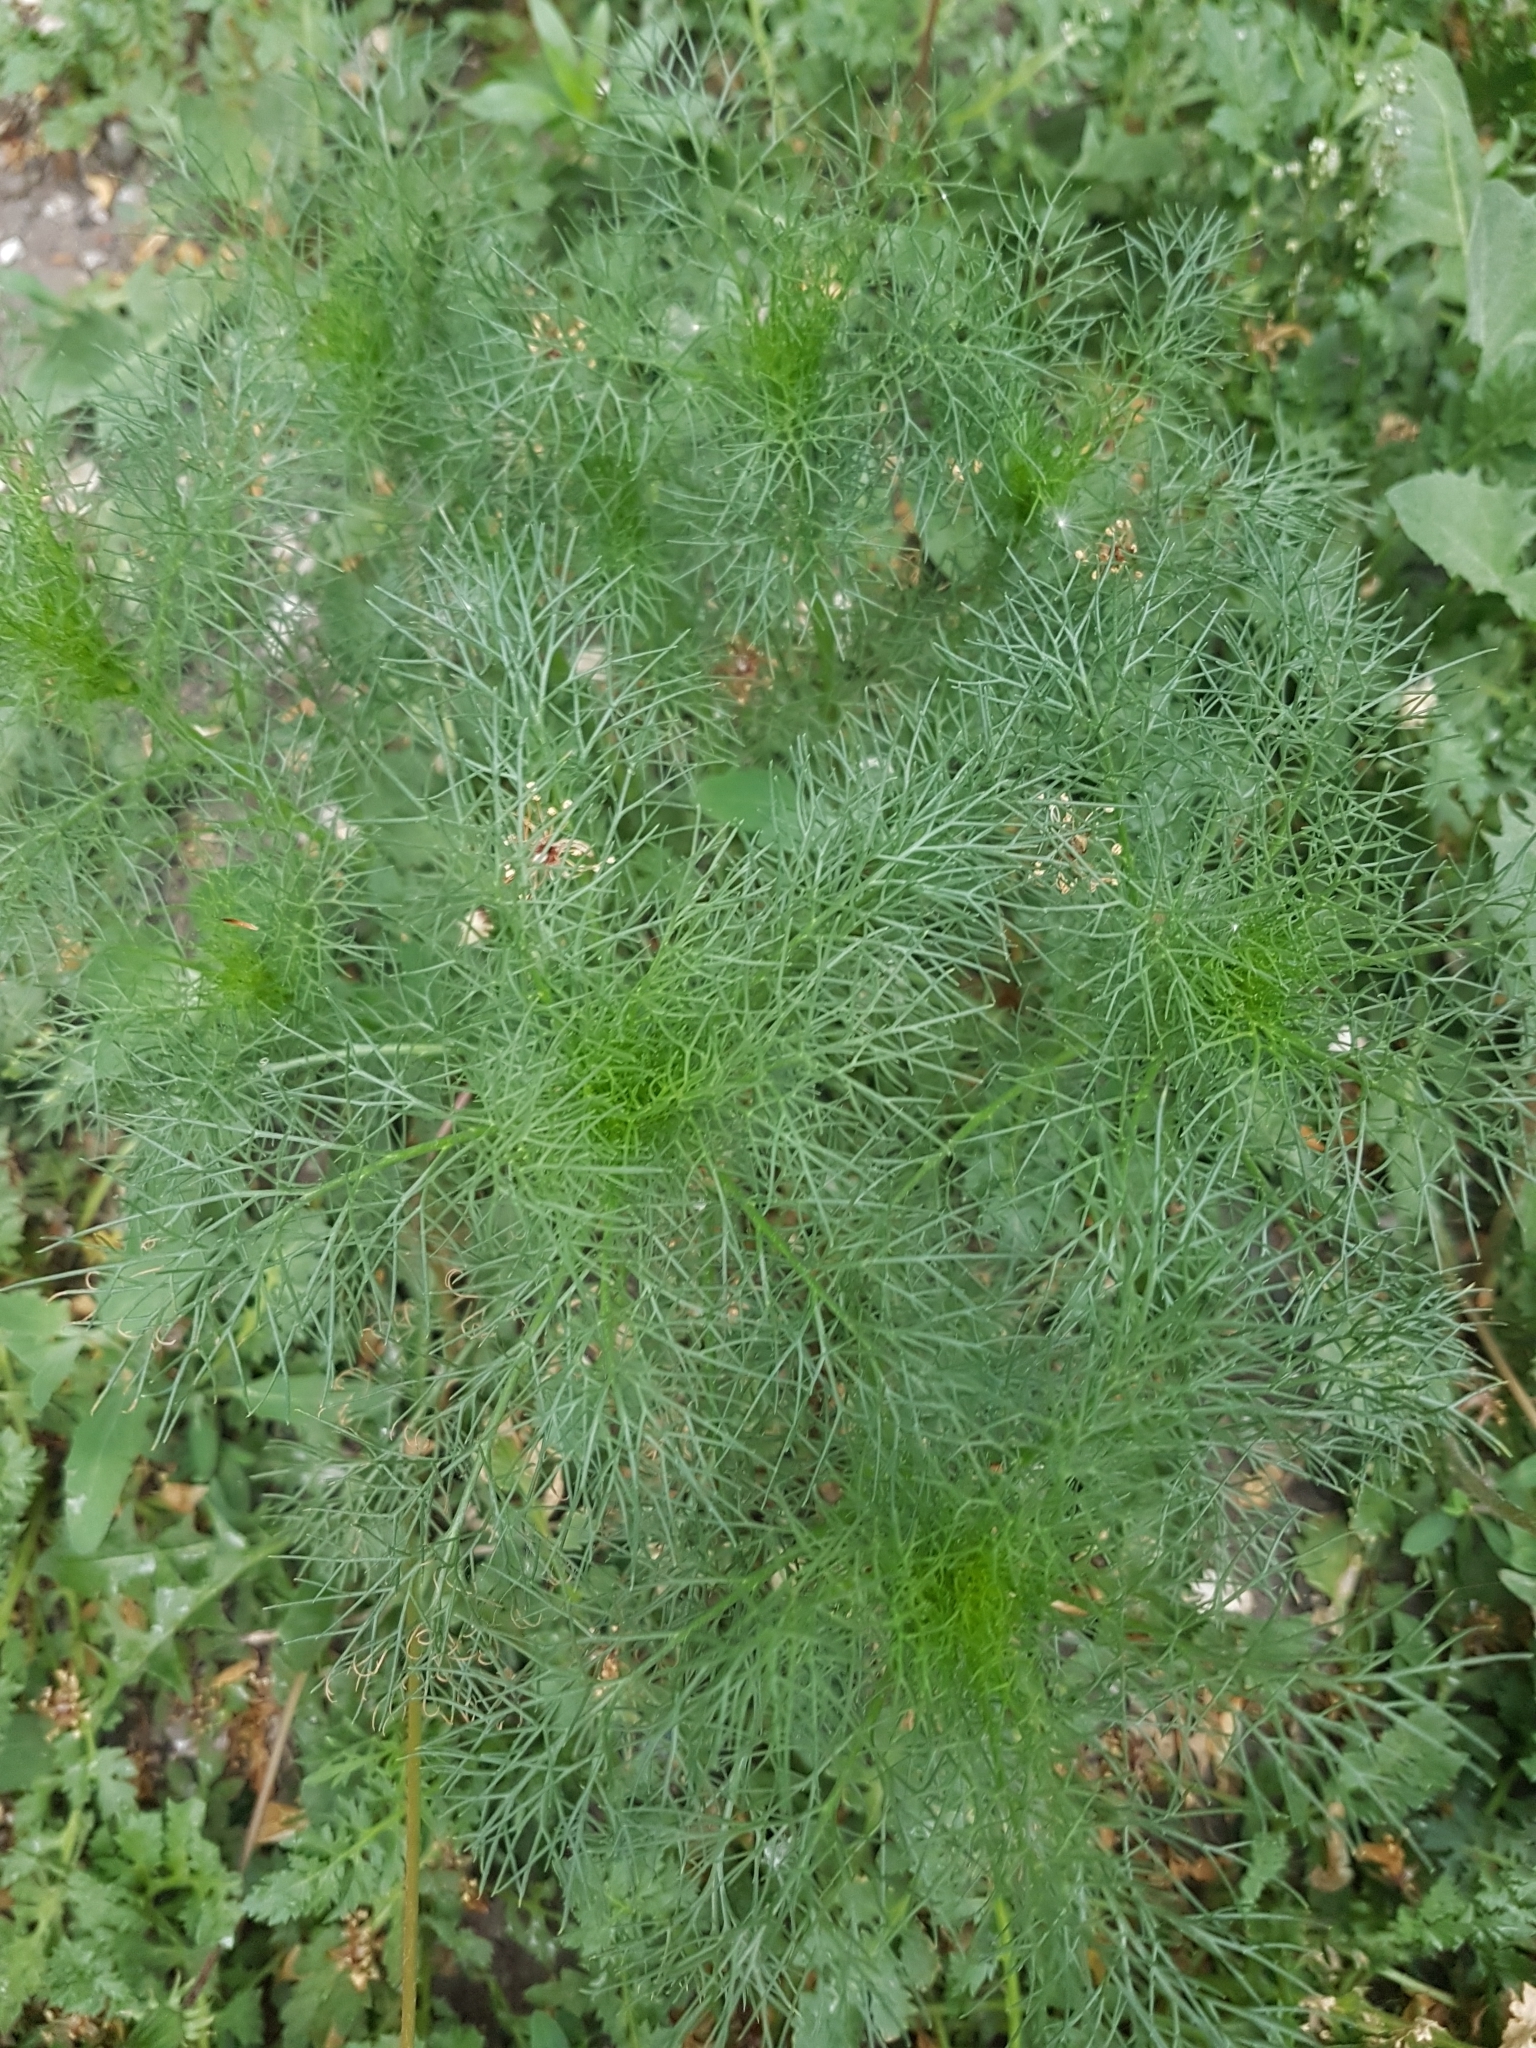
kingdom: Plantae
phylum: Tracheophyta
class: Magnoliopsida
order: Asterales
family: Asteraceae
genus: Tripleurospermum
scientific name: Tripleurospermum inodorum
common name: Scentless mayweed
